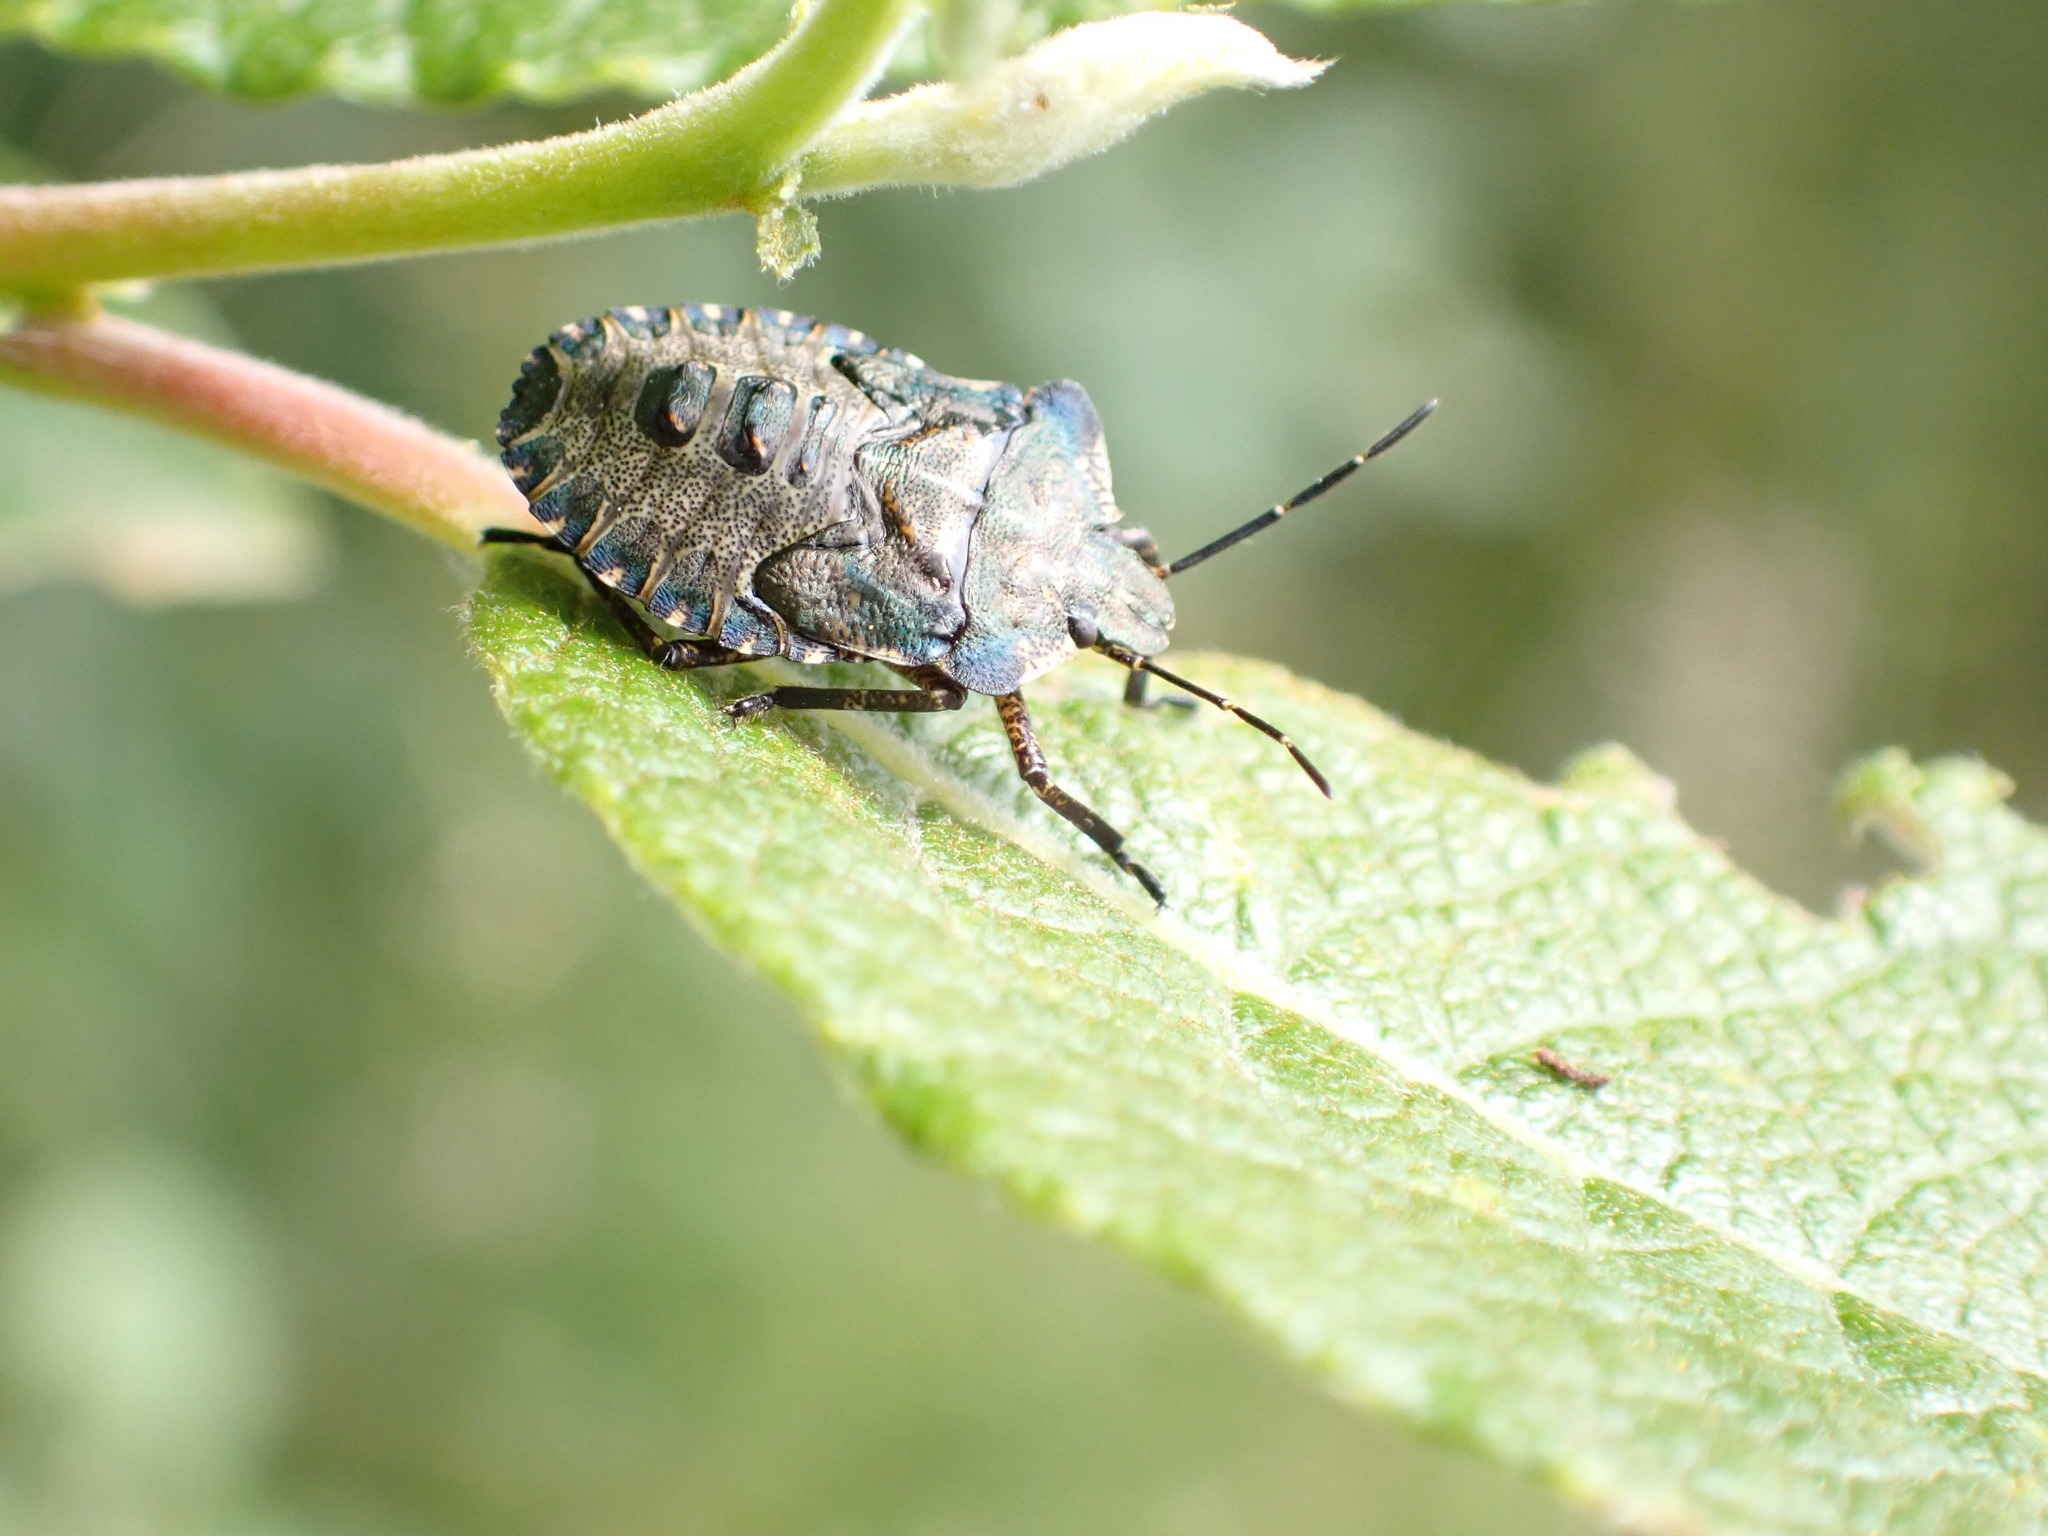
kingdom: Animalia
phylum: Arthropoda
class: Insecta
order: Hemiptera
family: Pentatomidae
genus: Pentatoma
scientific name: Pentatoma rufipes
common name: Forest bug
